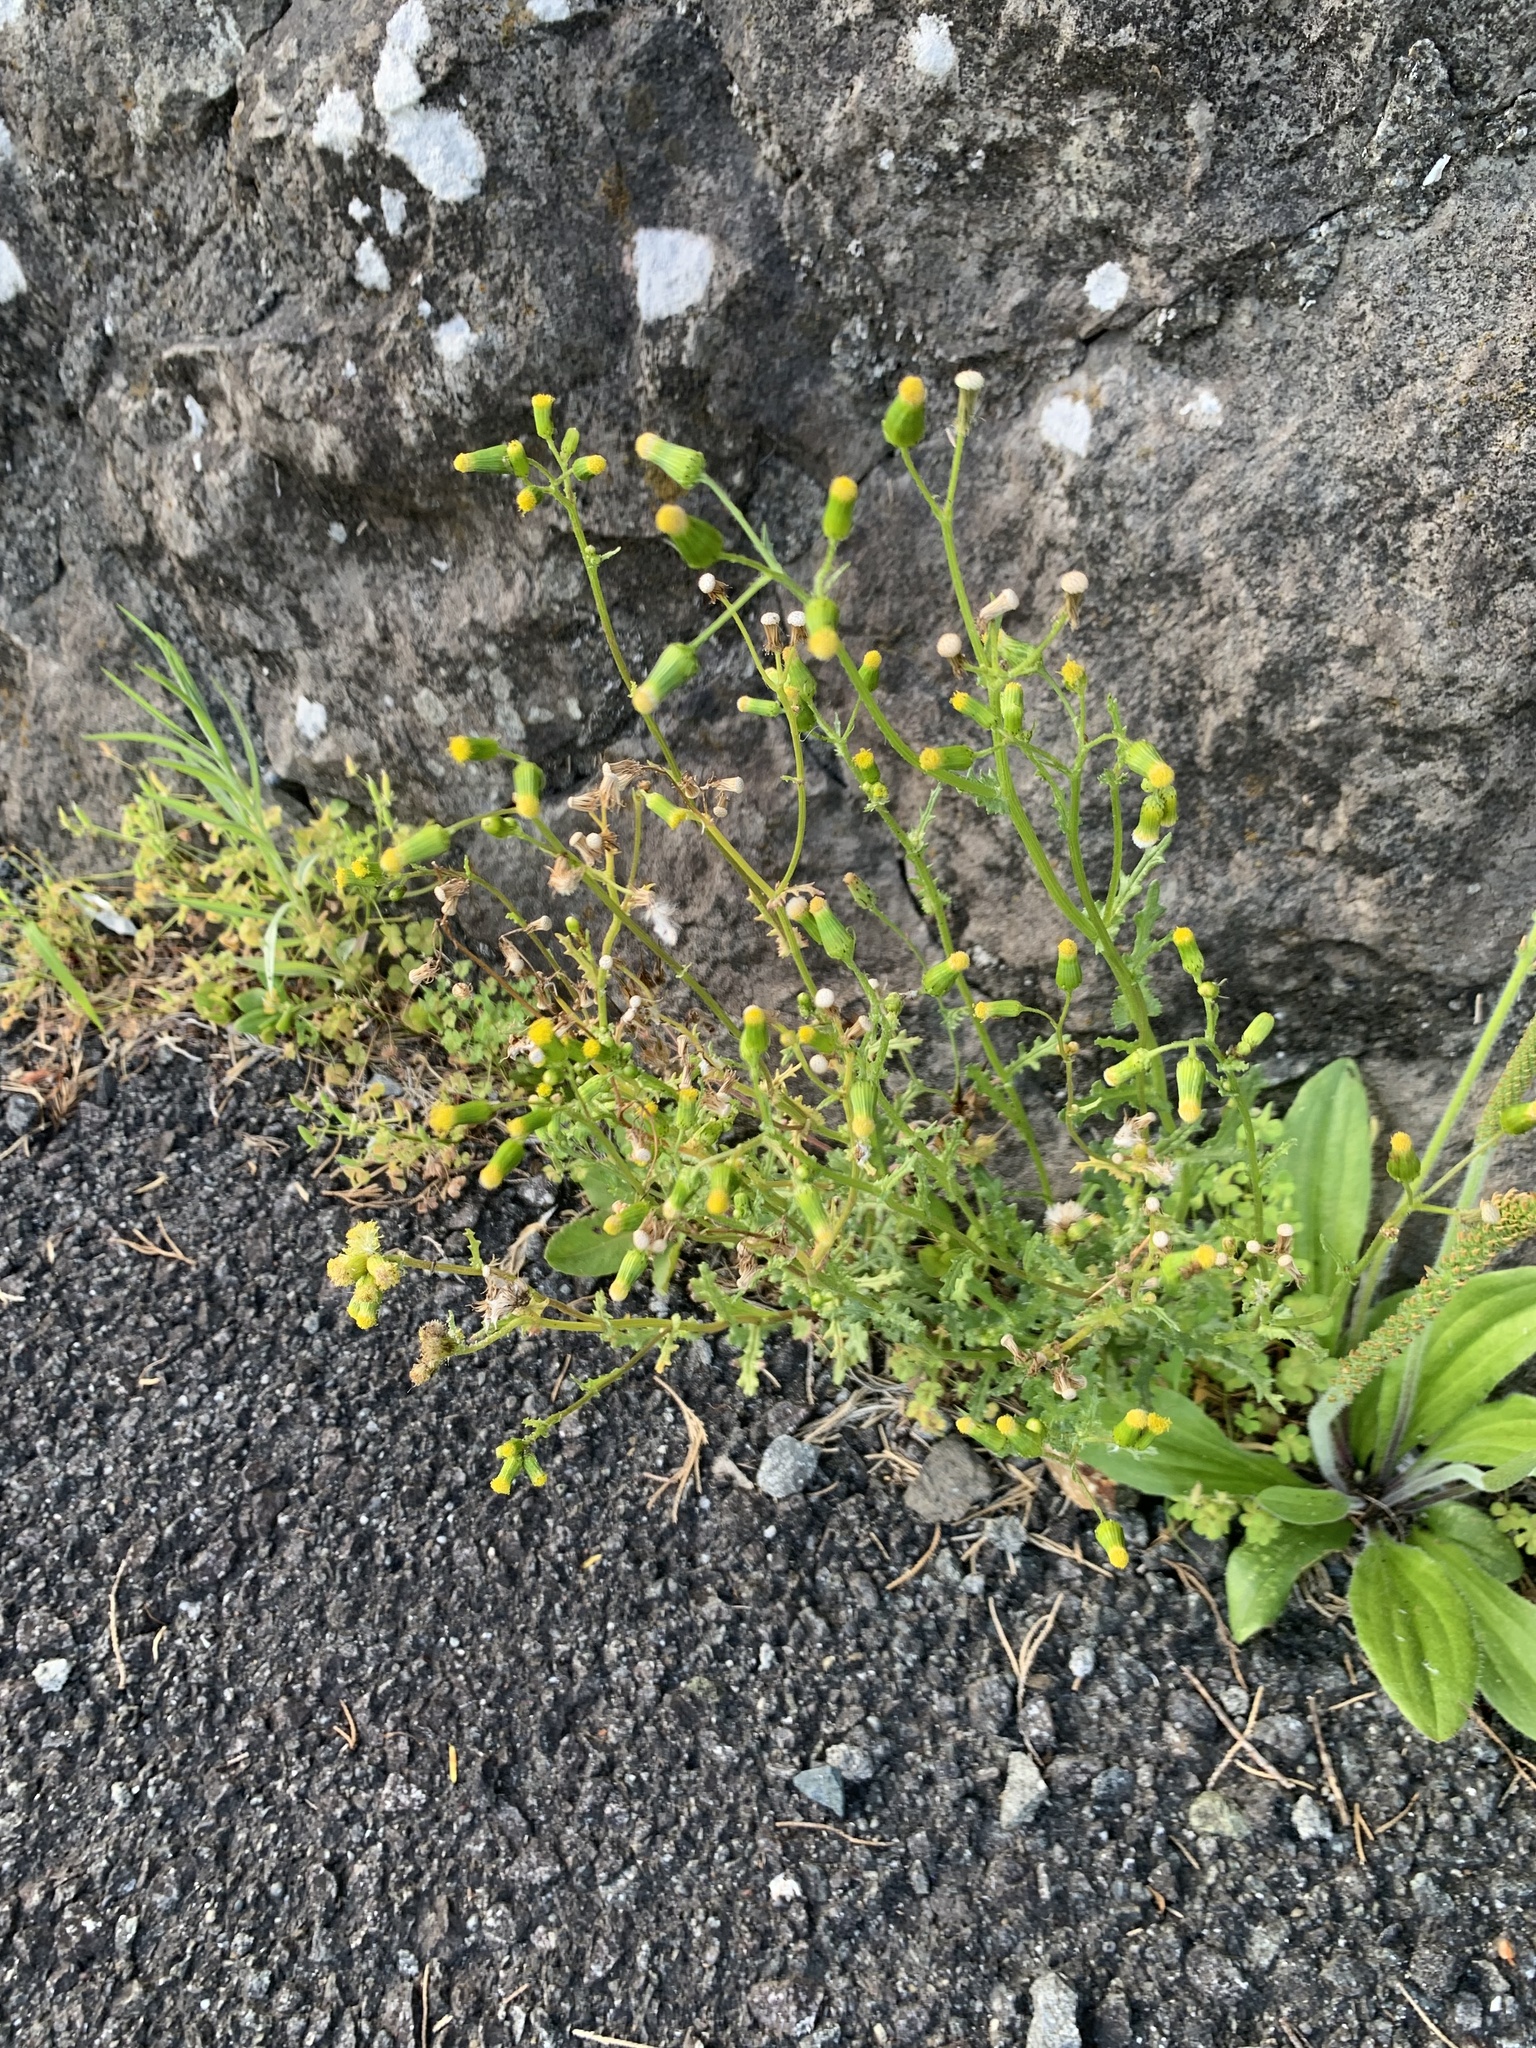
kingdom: Plantae
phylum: Tracheophyta
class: Magnoliopsida
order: Asterales
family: Asteraceae
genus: Senecio
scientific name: Senecio vulgaris
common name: Old-man-in-the-spring
